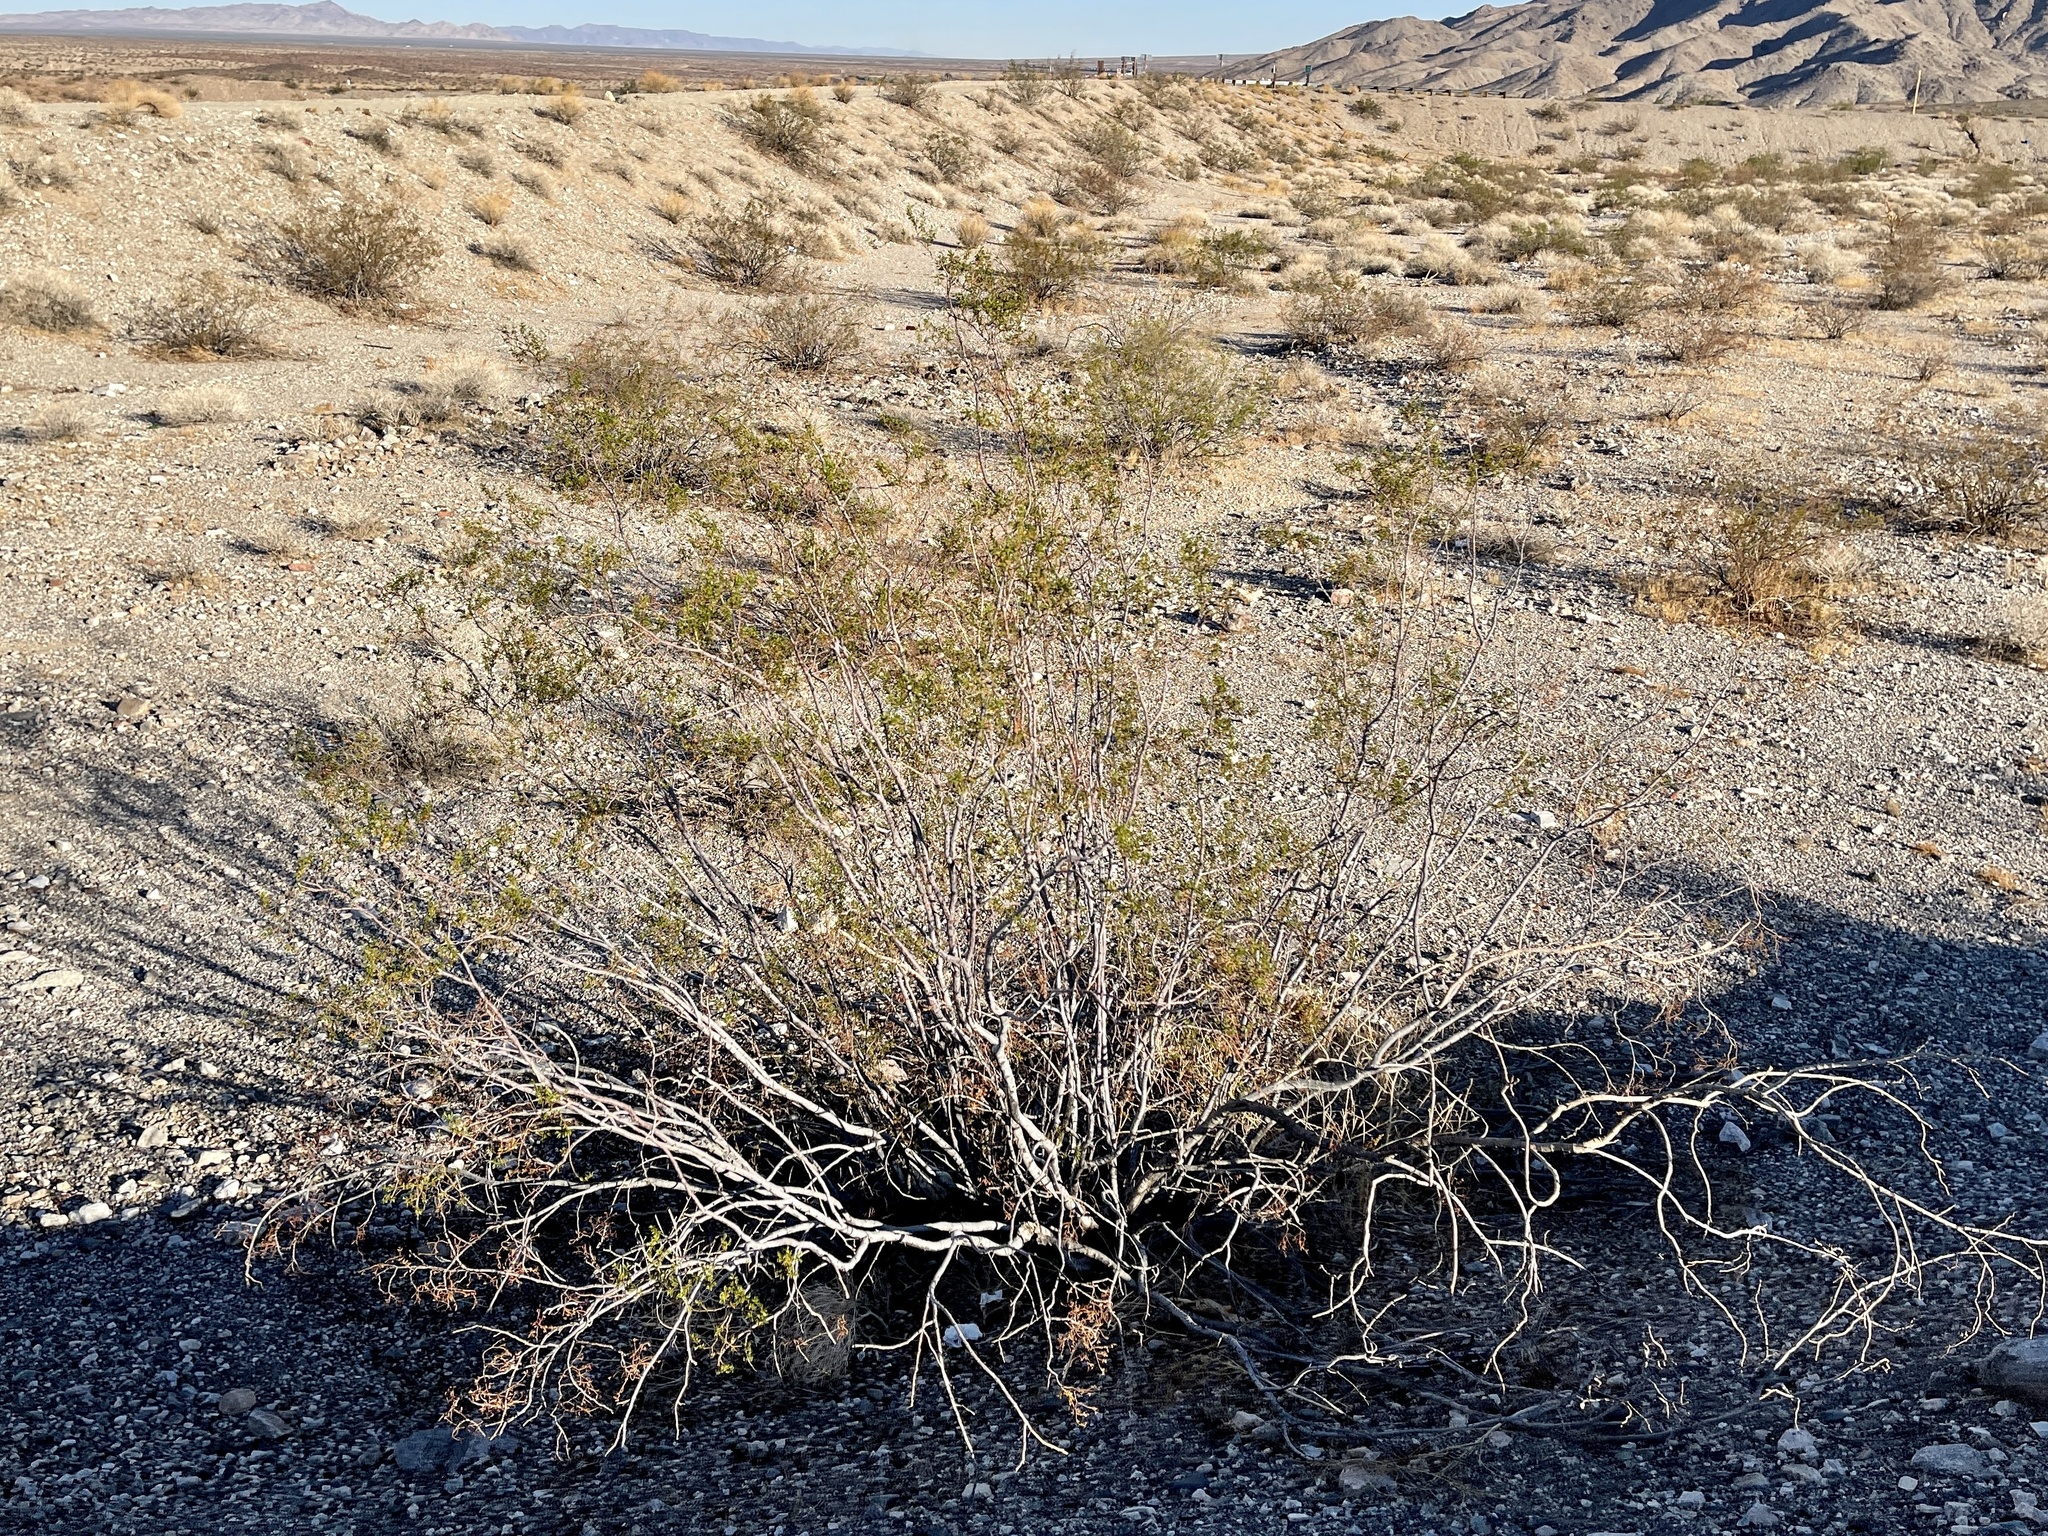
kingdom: Plantae
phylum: Tracheophyta
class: Magnoliopsida
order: Zygophyllales
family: Zygophyllaceae
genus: Larrea
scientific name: Larrea tridentata
